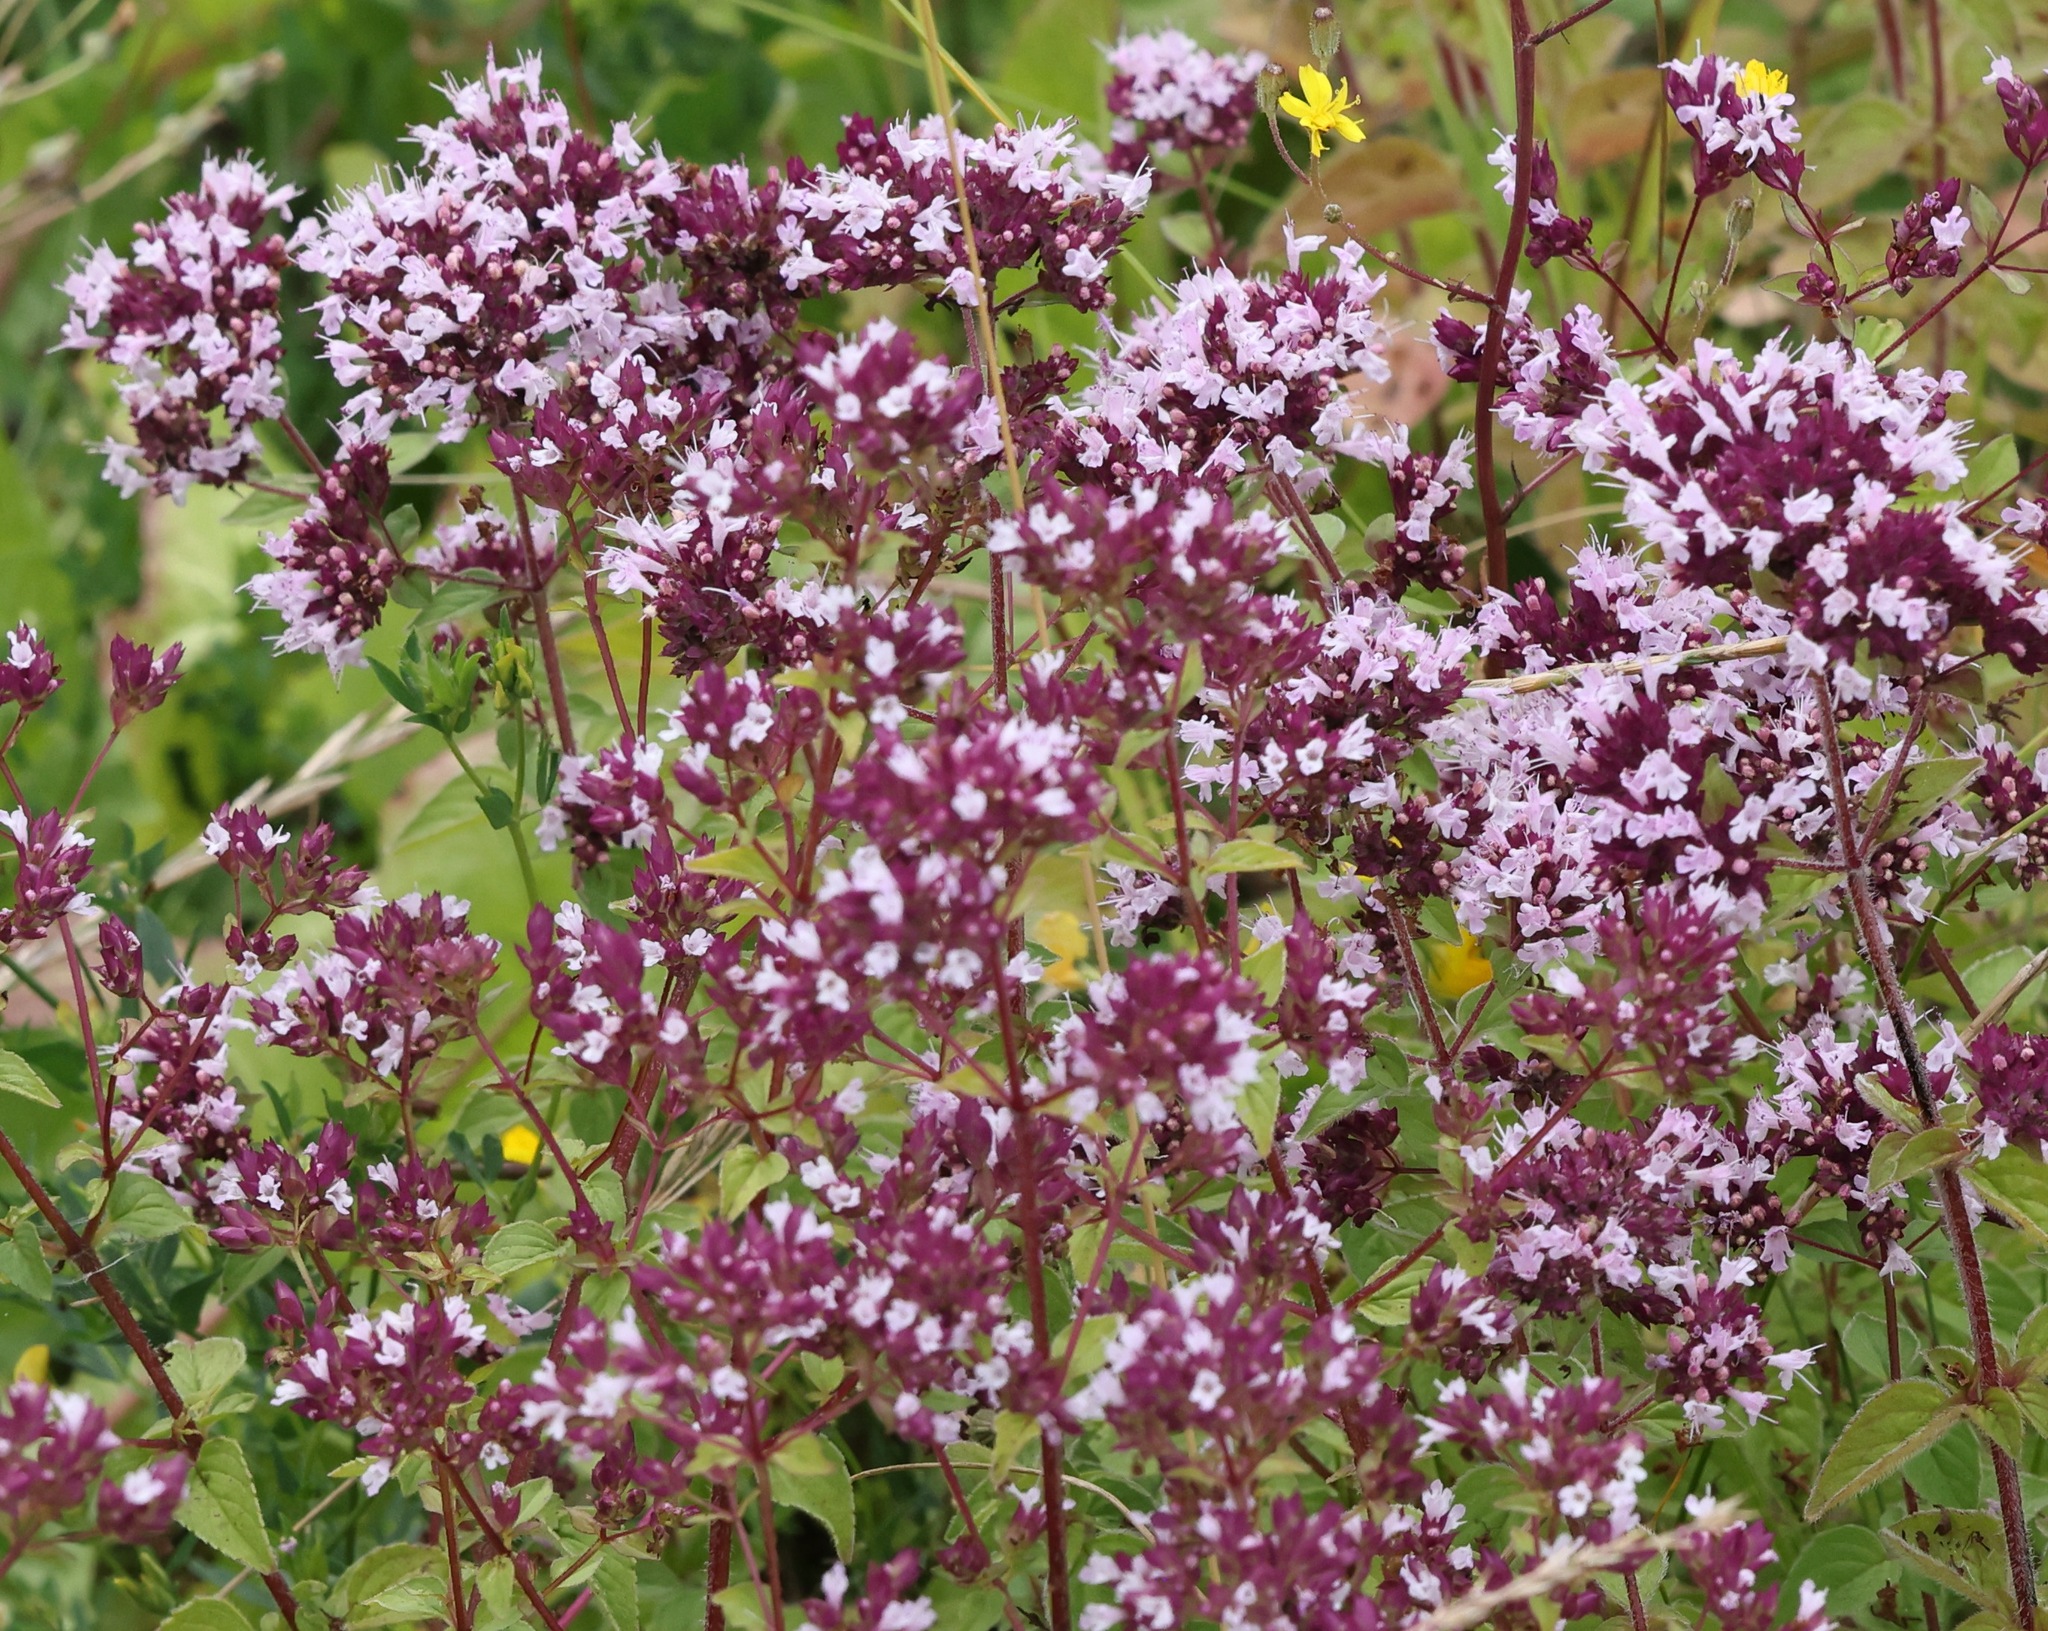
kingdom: Plantae
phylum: Tracheophyta
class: Magnoliopsida
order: Lamiales
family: Lamiaceae
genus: Origanum
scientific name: Origanum vulgare
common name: Wild marjoram
